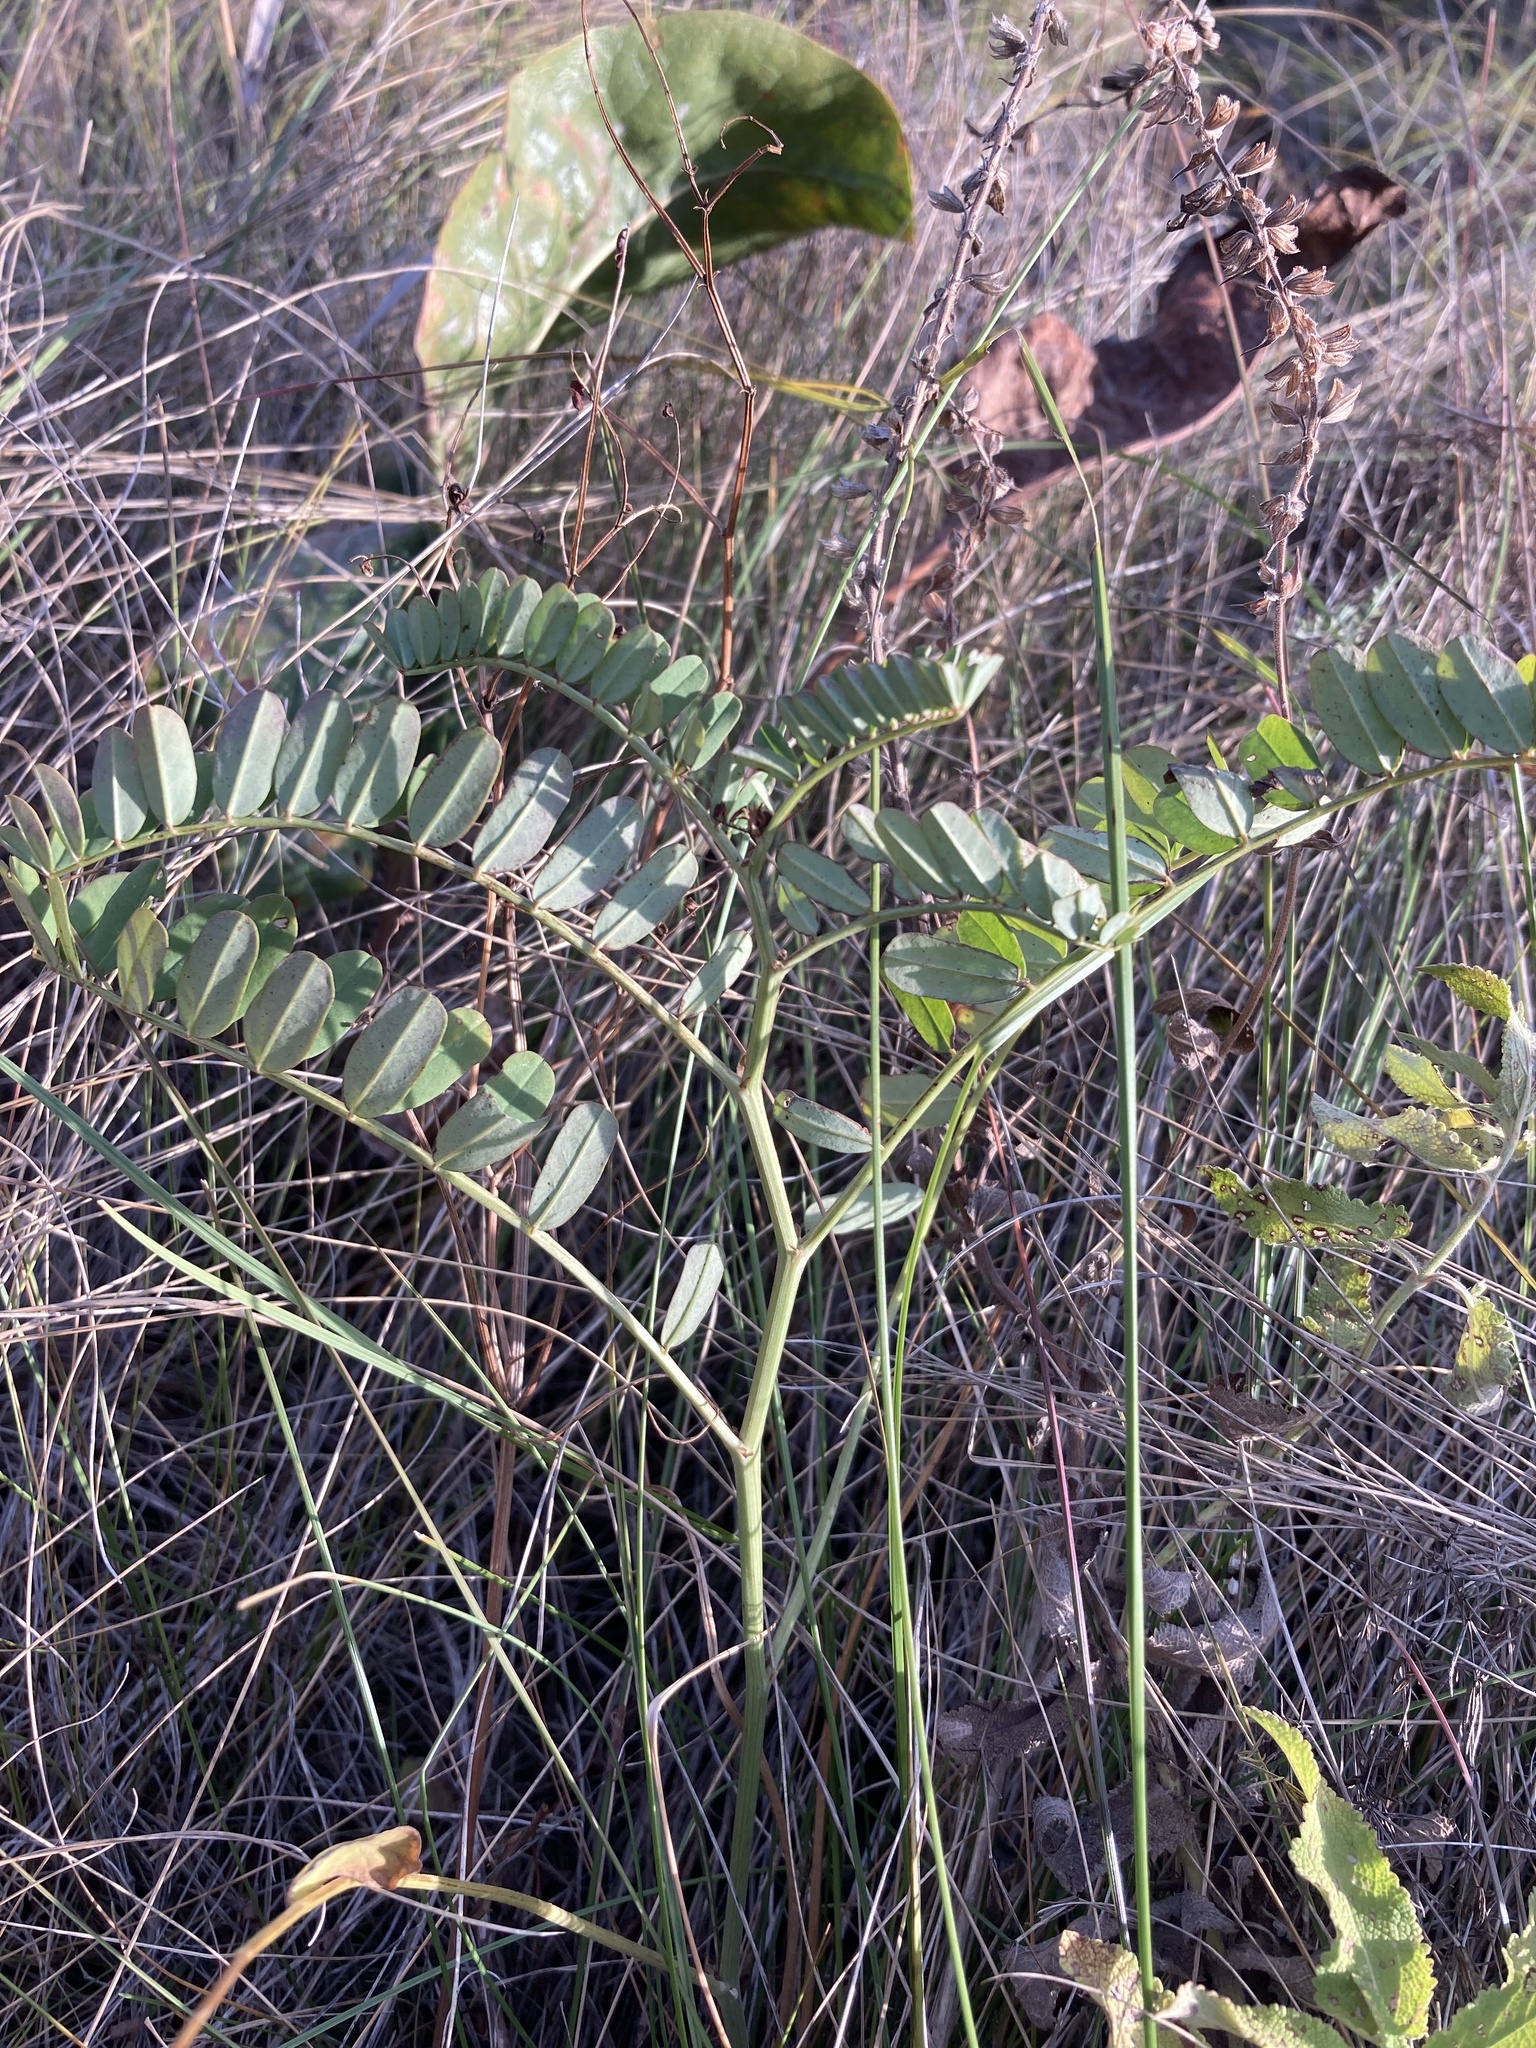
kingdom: Plantae
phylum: Tracheophyta
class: Magnoliopsida
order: Fabales
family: Fabaceae
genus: Coronilla
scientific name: Coronilla varia
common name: Crownvetch
